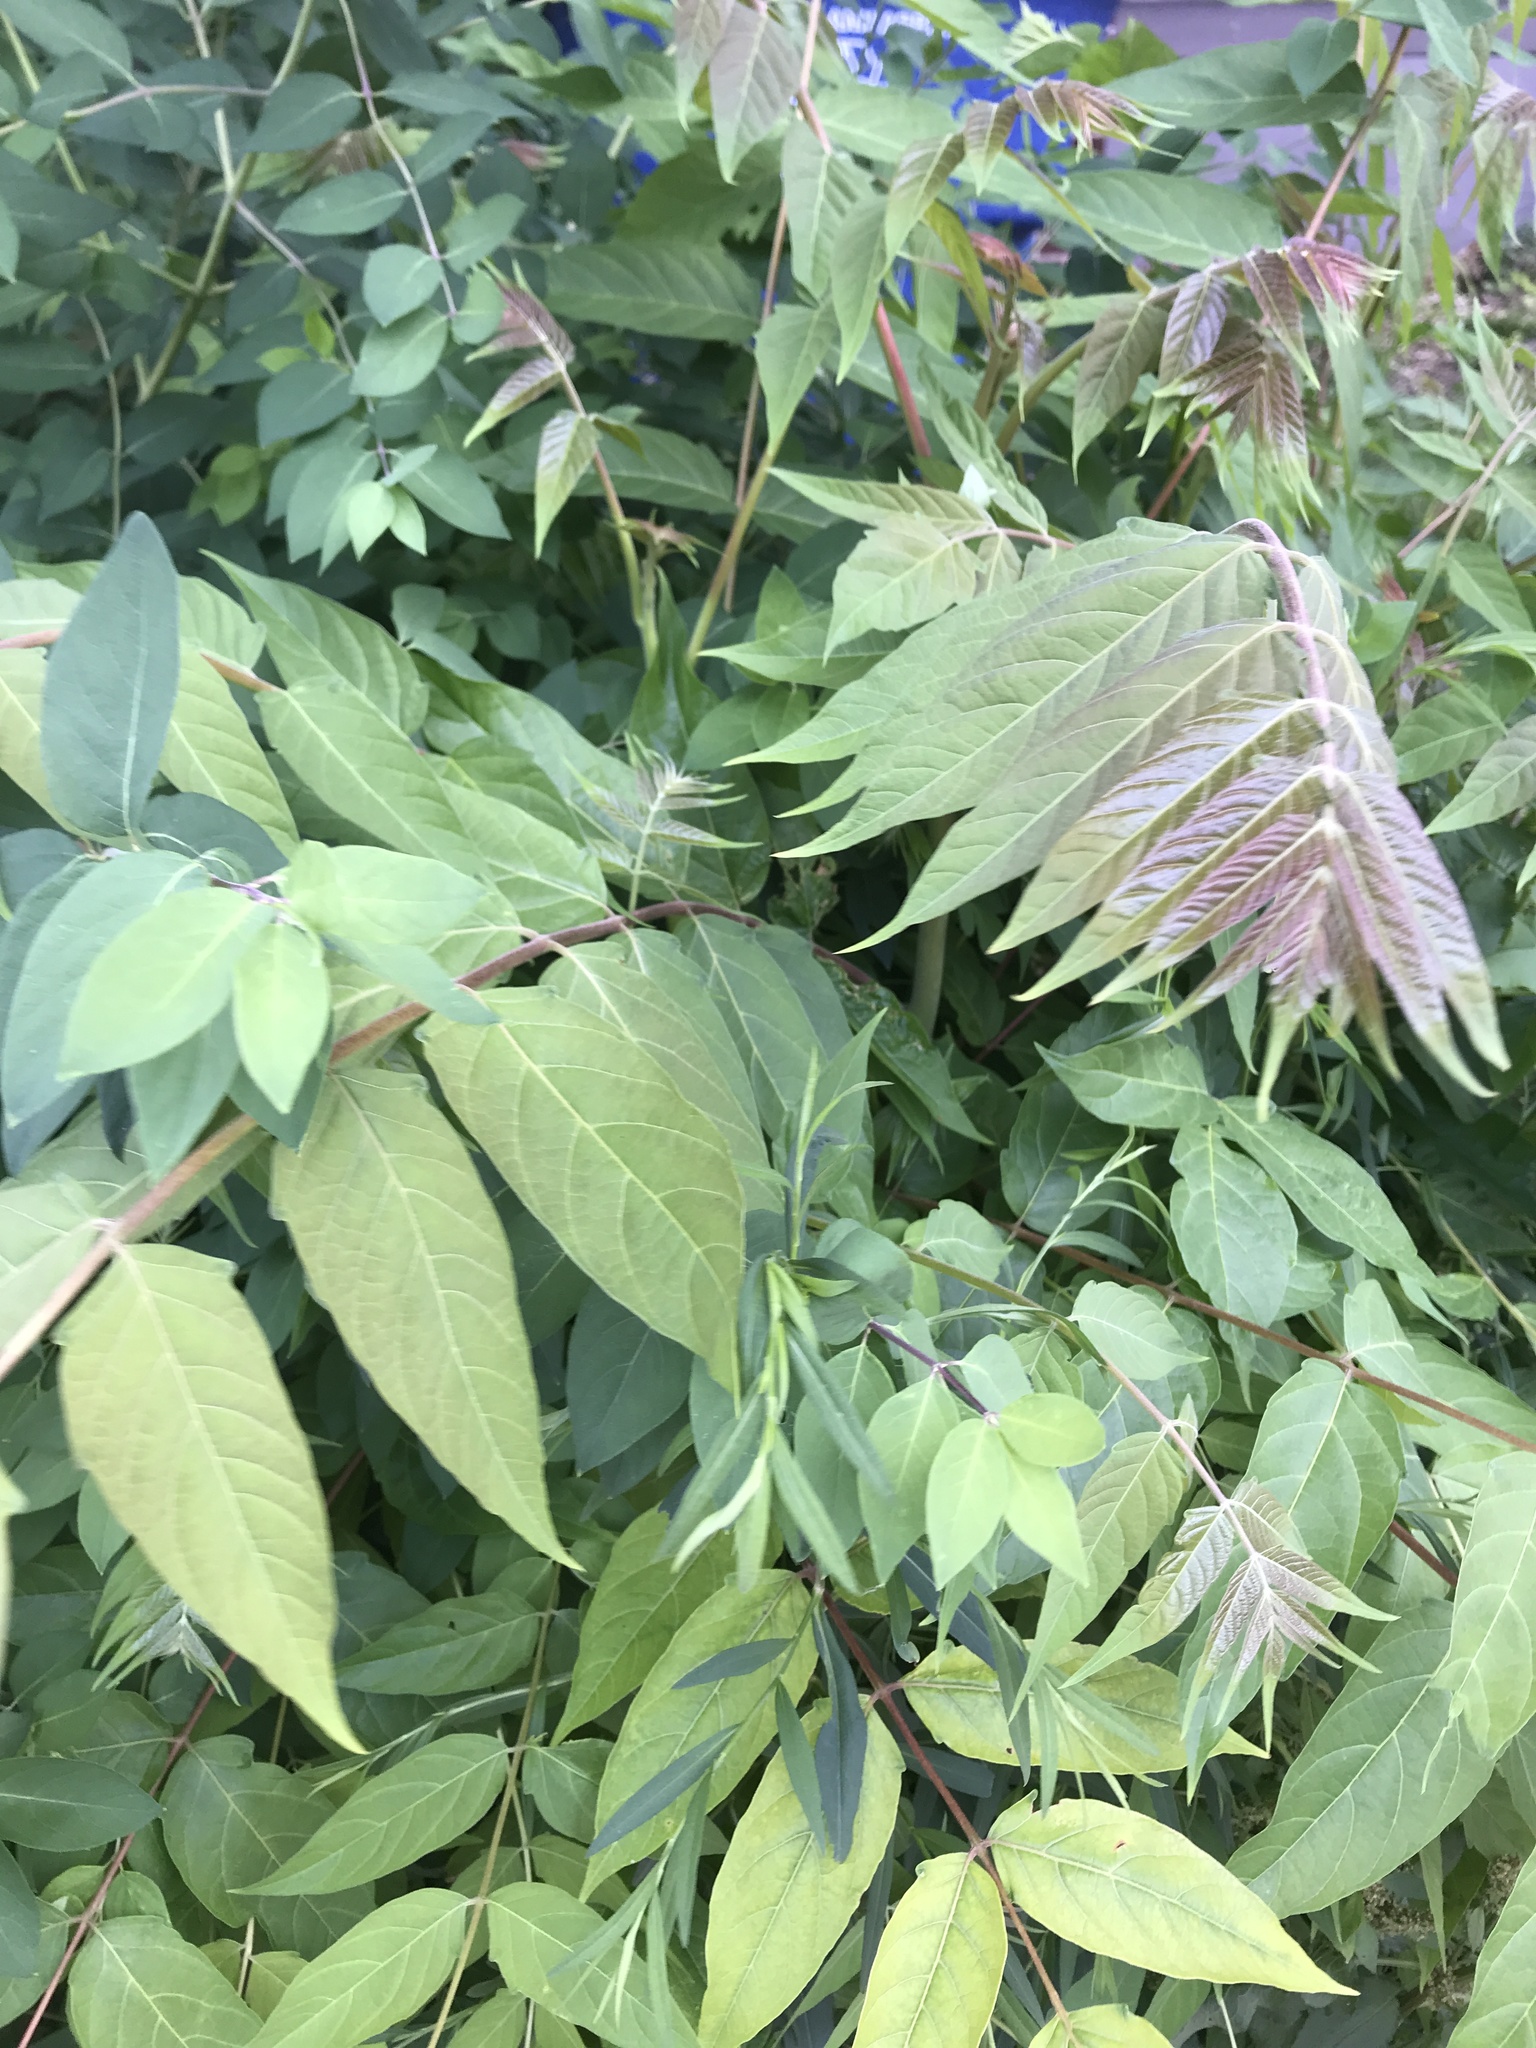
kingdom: Plantae
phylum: Tracheophyta
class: Magnoliopsida
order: Sapindales
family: Simaroubaceae
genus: Ailanthus
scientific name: Ailanthus altissima
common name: Tree-of-heaven
